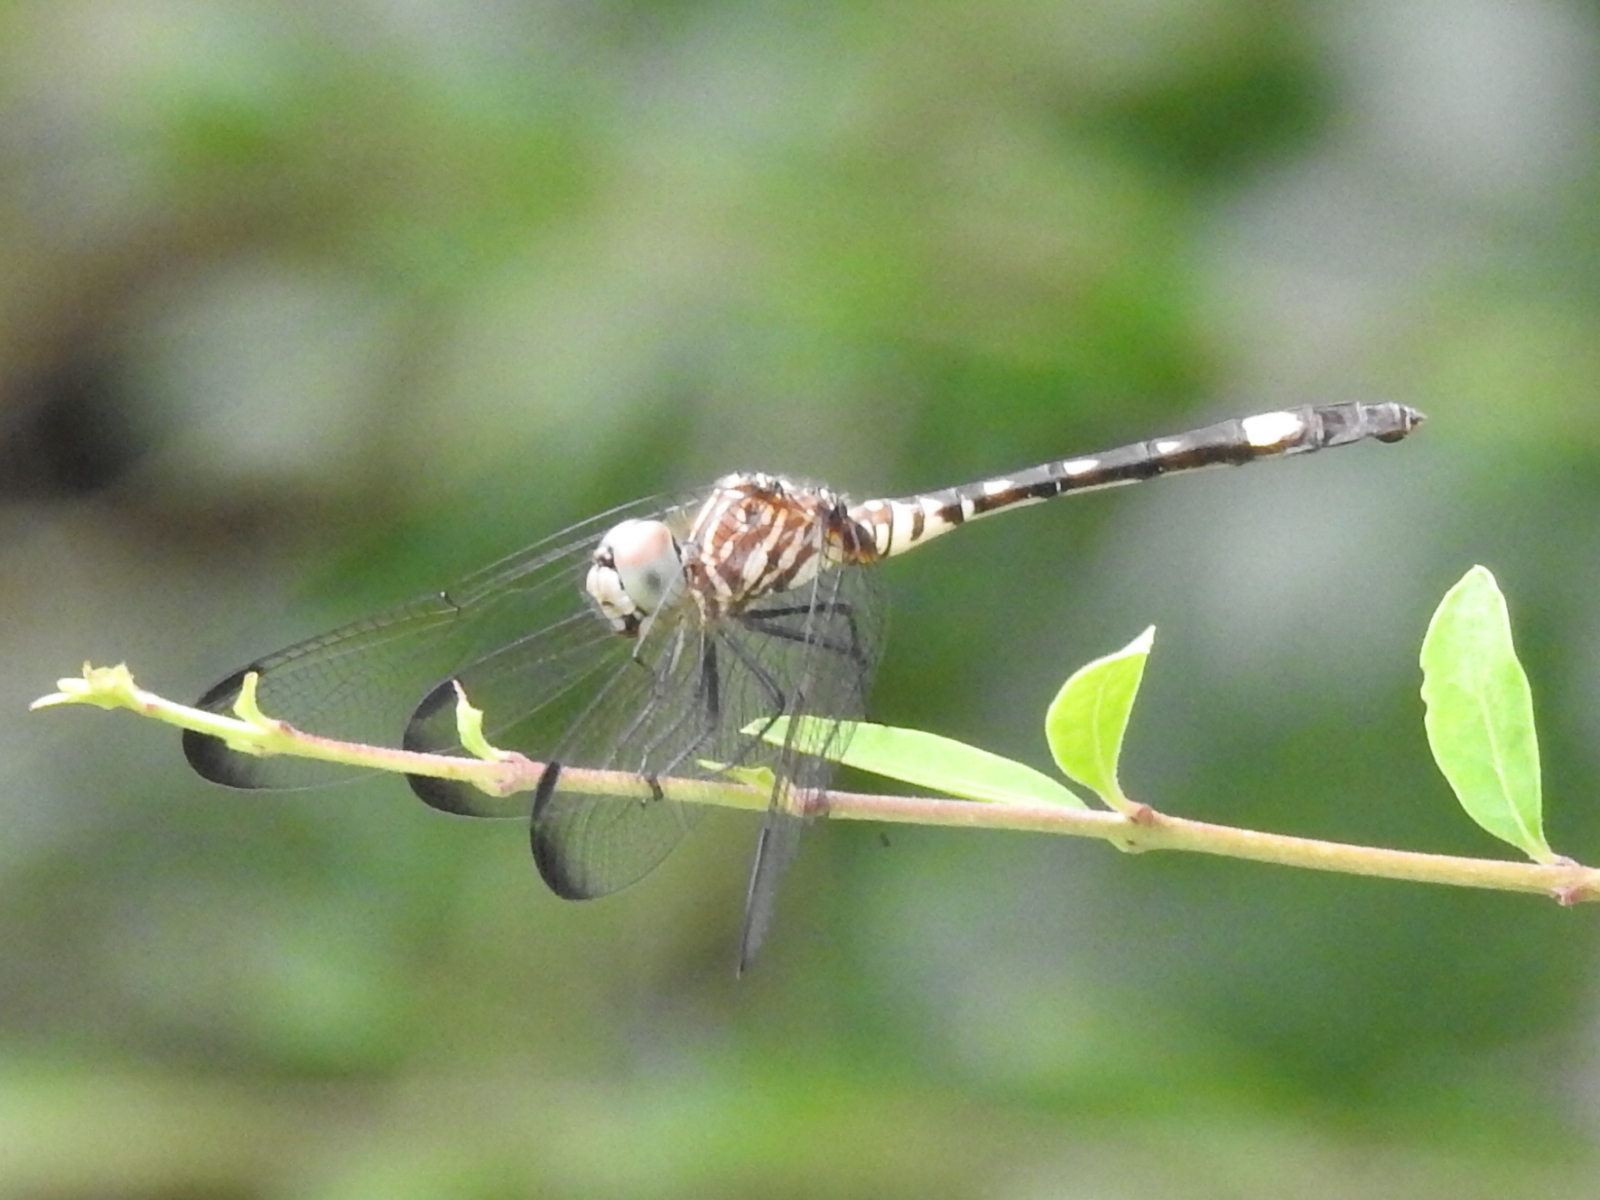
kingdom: Animalia
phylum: Arthropoda
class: Insecta
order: Odonata
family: Libellulidae
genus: Dythemis
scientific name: Dythemis velox
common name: Swift setwing
